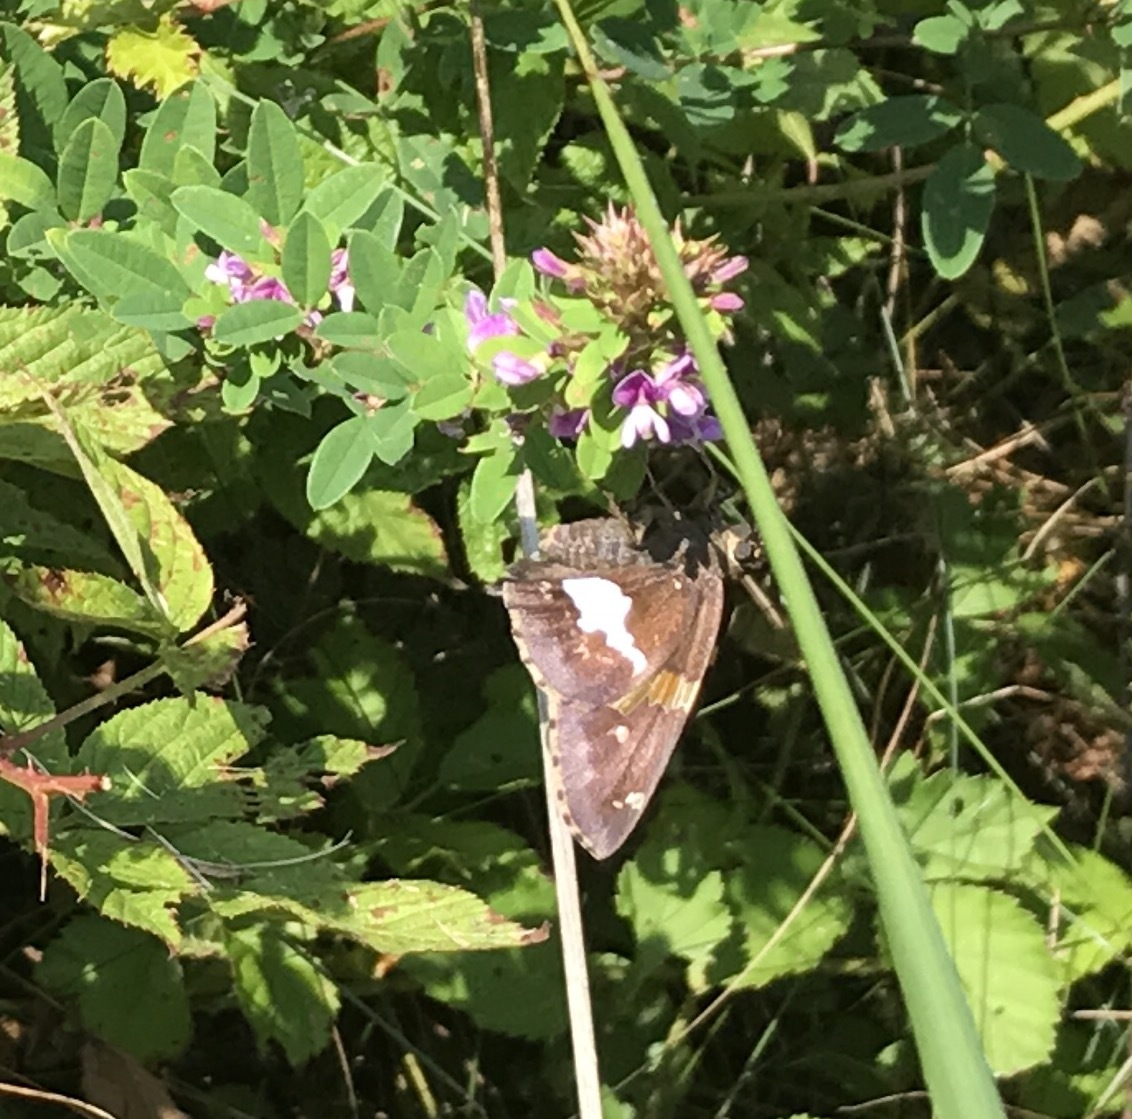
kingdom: Animalia
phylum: Arthropoda
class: Insecta
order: Lepidoptera
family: Hesperiidae
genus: Epargyreus
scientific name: Epargyreus clarus
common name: Silver-spotted skipper
